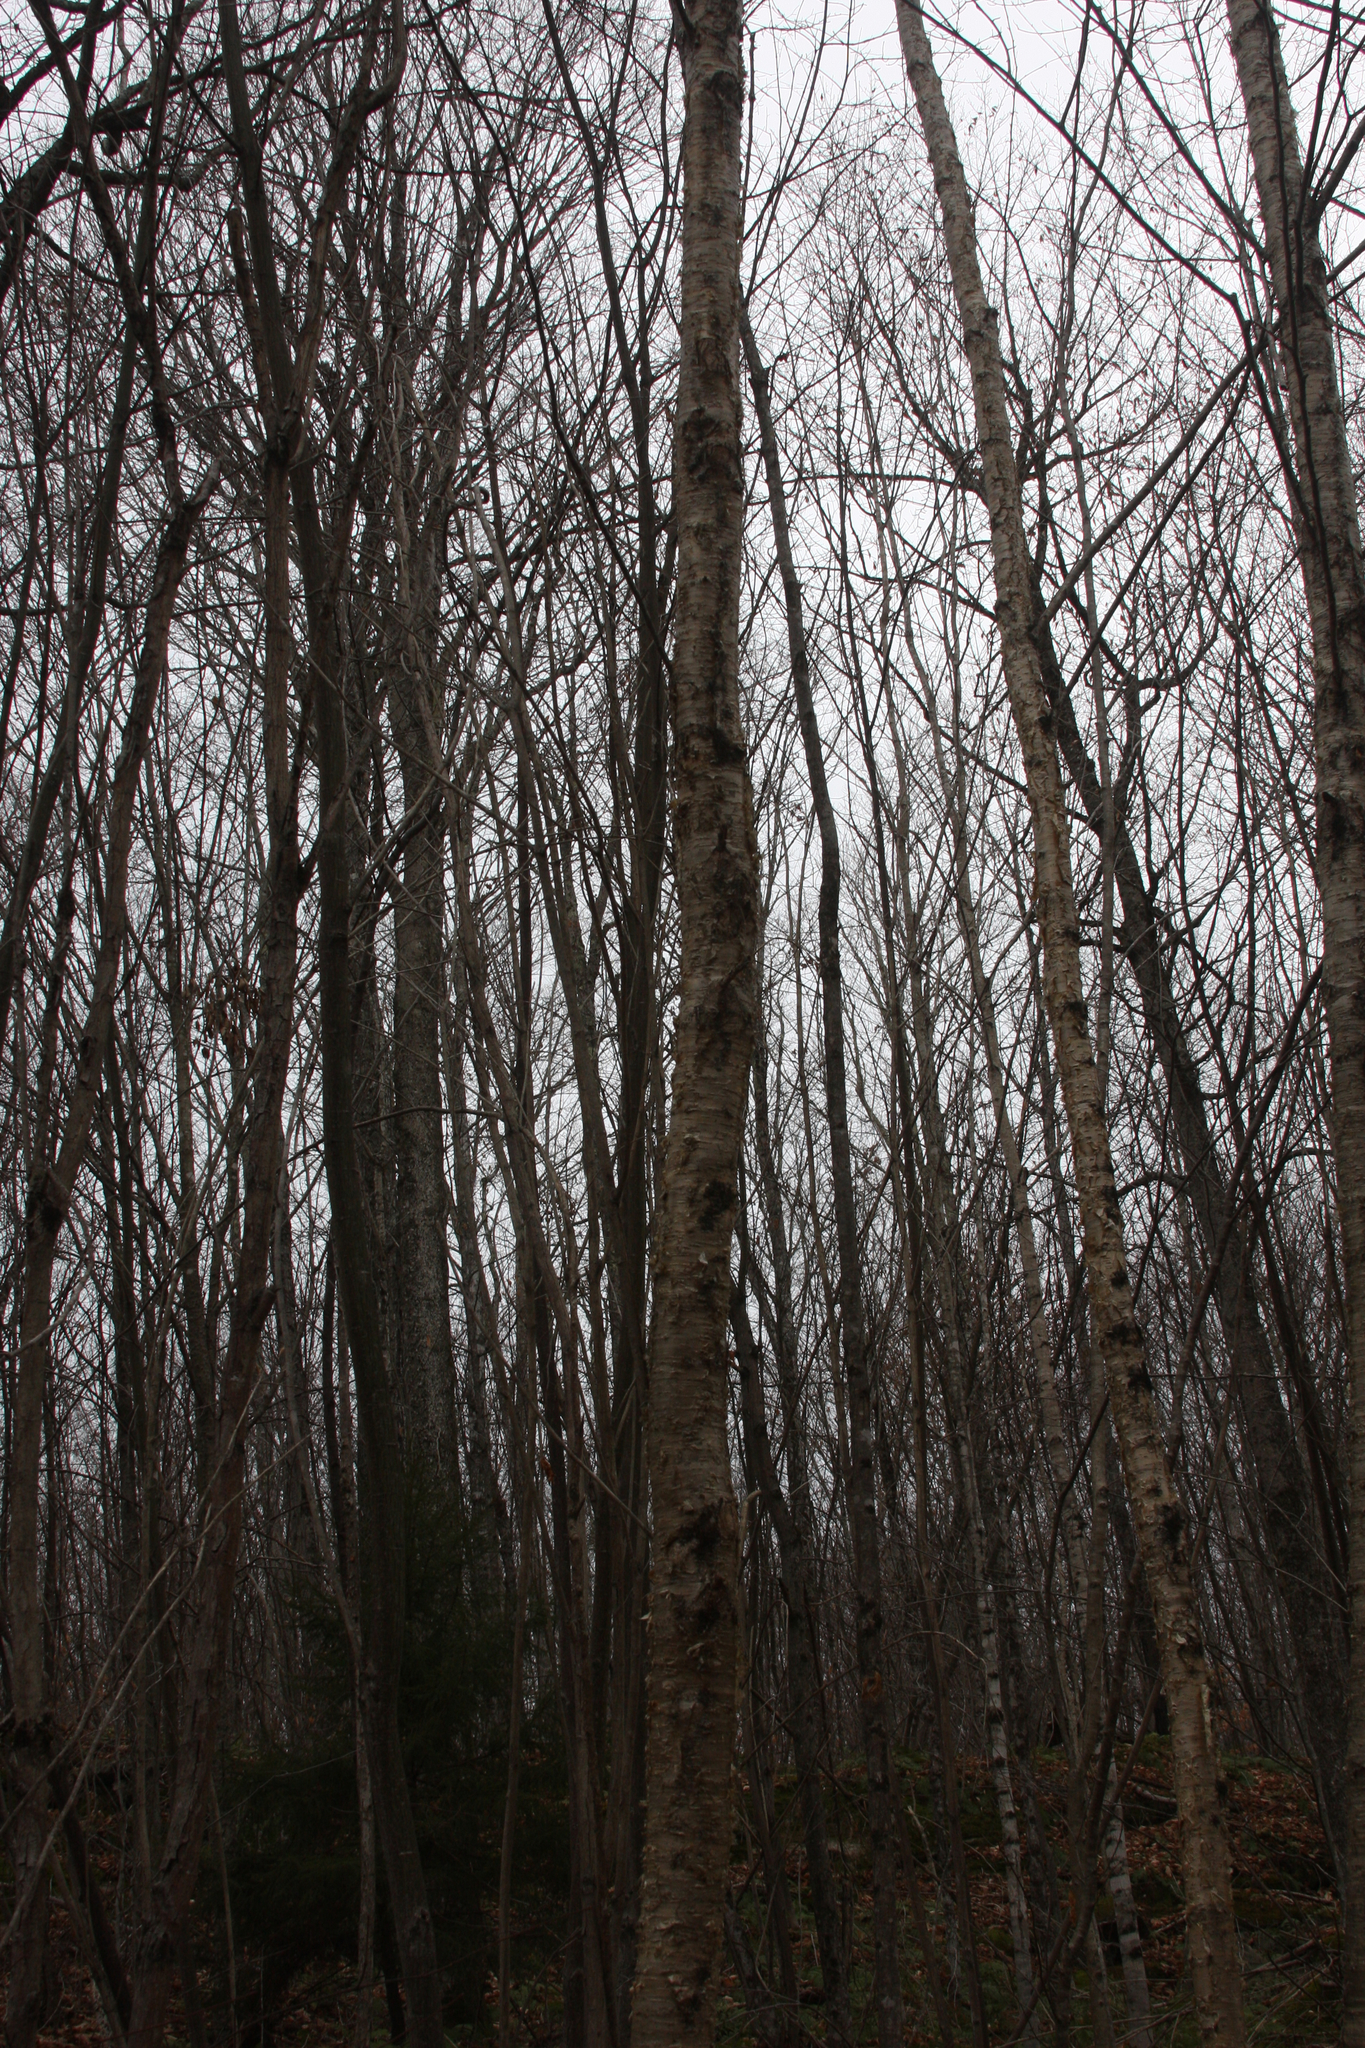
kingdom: Plantae
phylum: Tracheophyta
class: Magnoliopsida
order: Fagales
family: Betulaceae
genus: Betula
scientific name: Betula alleghaniensis
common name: Yellow birch
